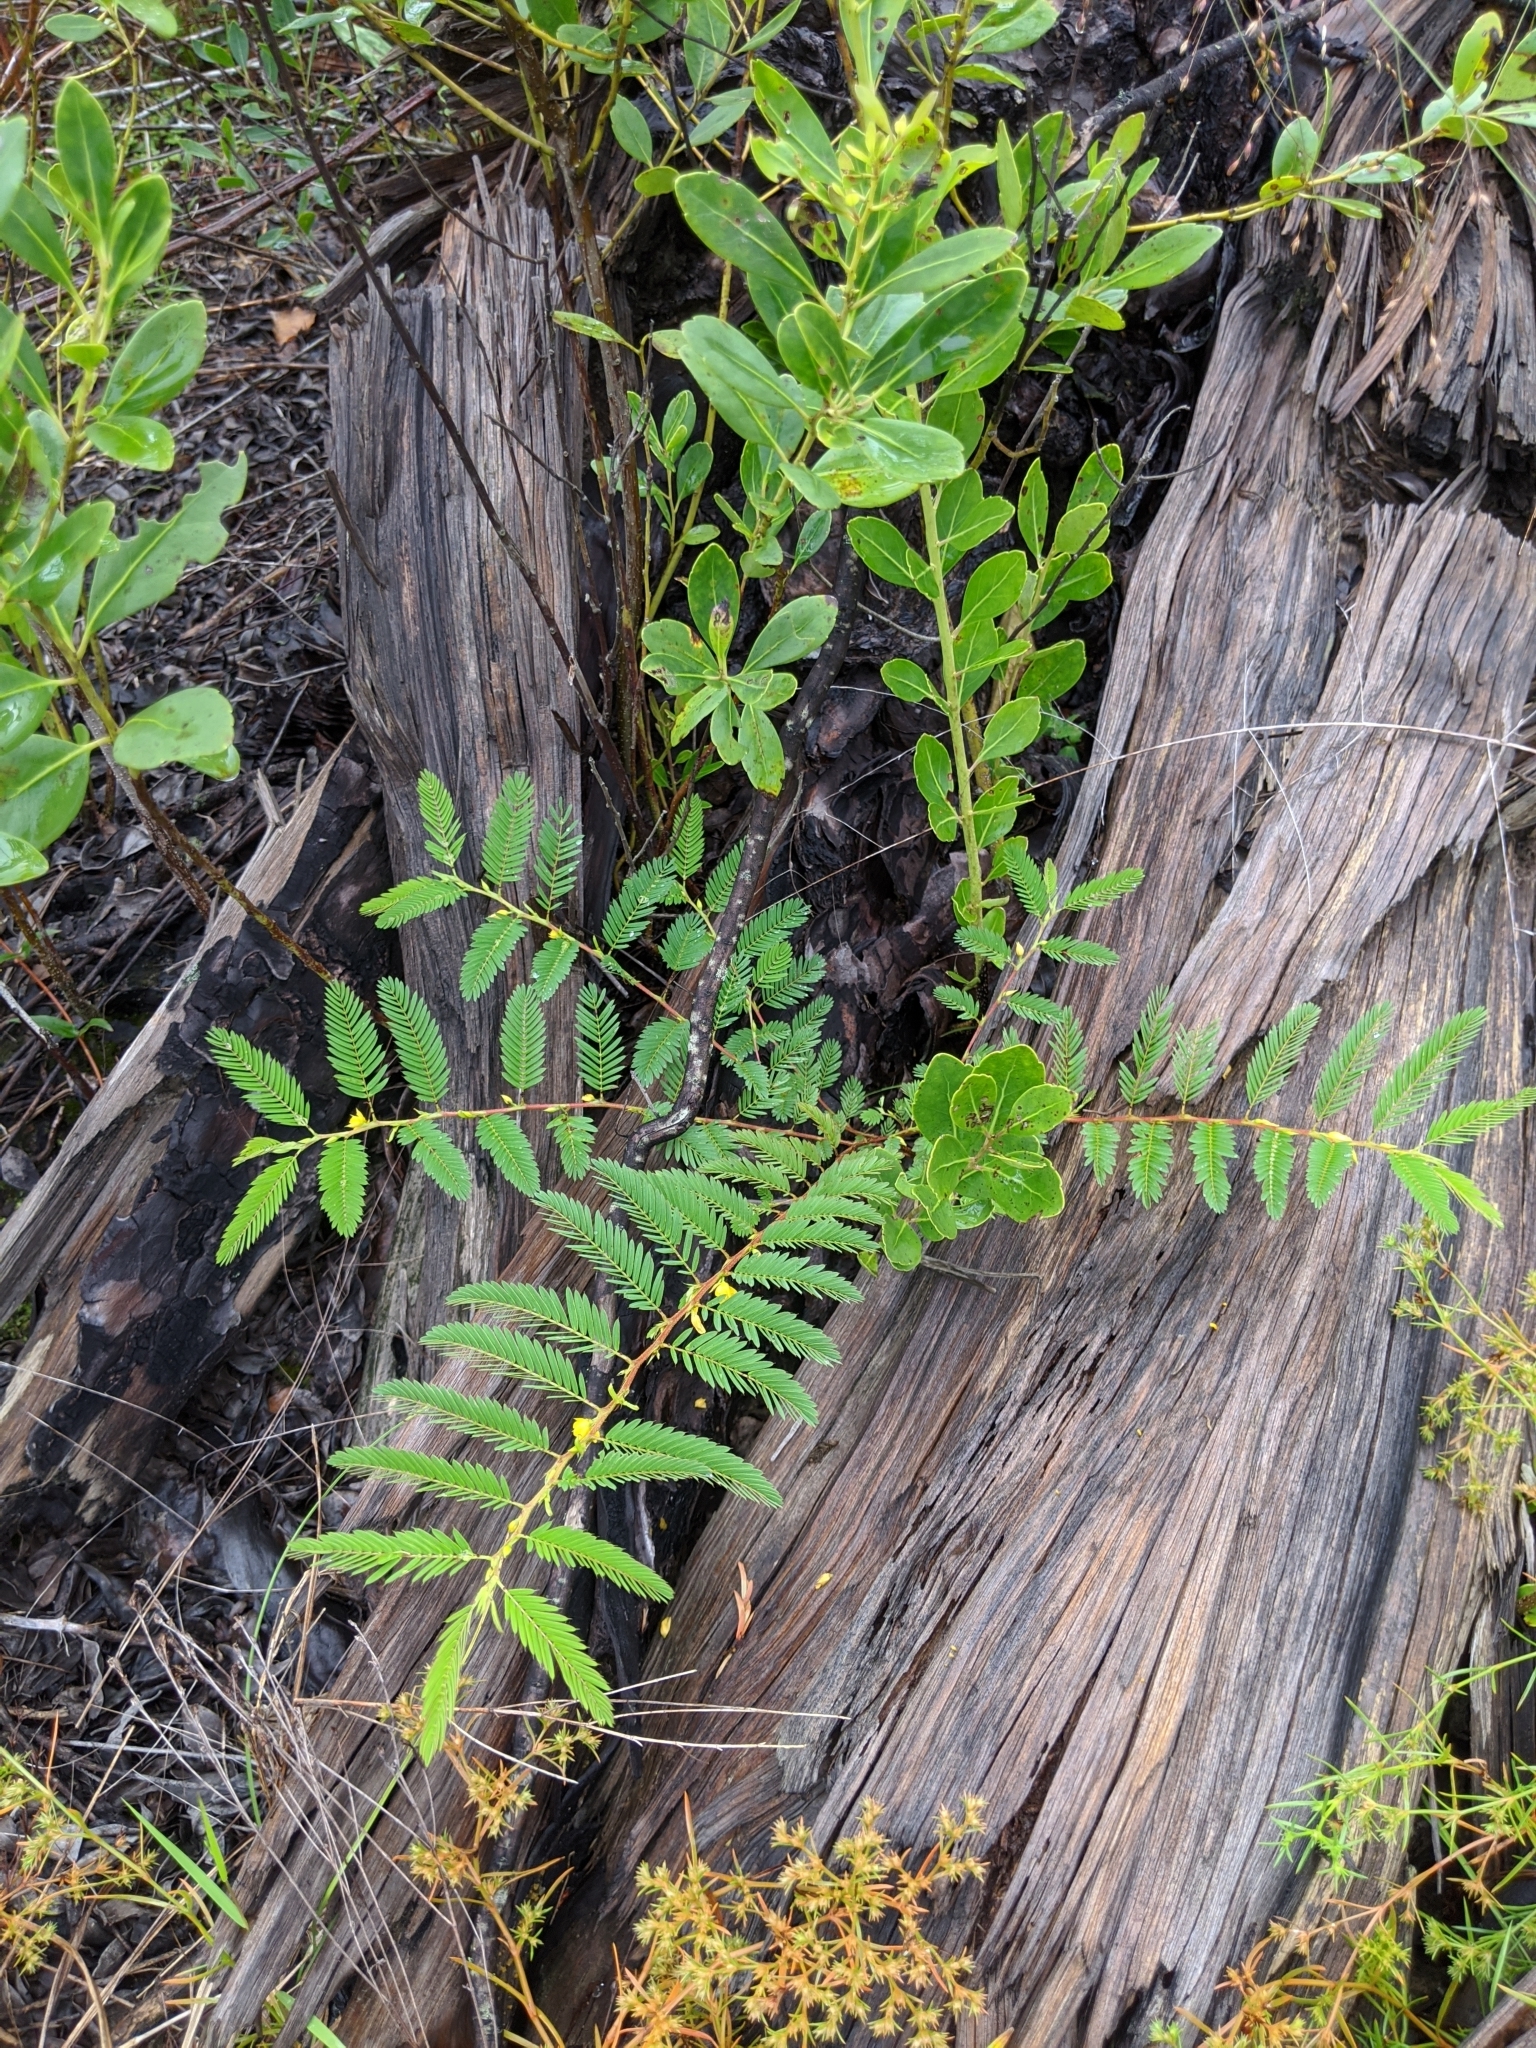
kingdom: Plantae
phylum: Tracheophyta
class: Magnoliopsida
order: Fabales
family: Fabaceae
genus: Chamaecrista
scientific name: Chamaecrista nictitans
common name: Sensitive cassia
